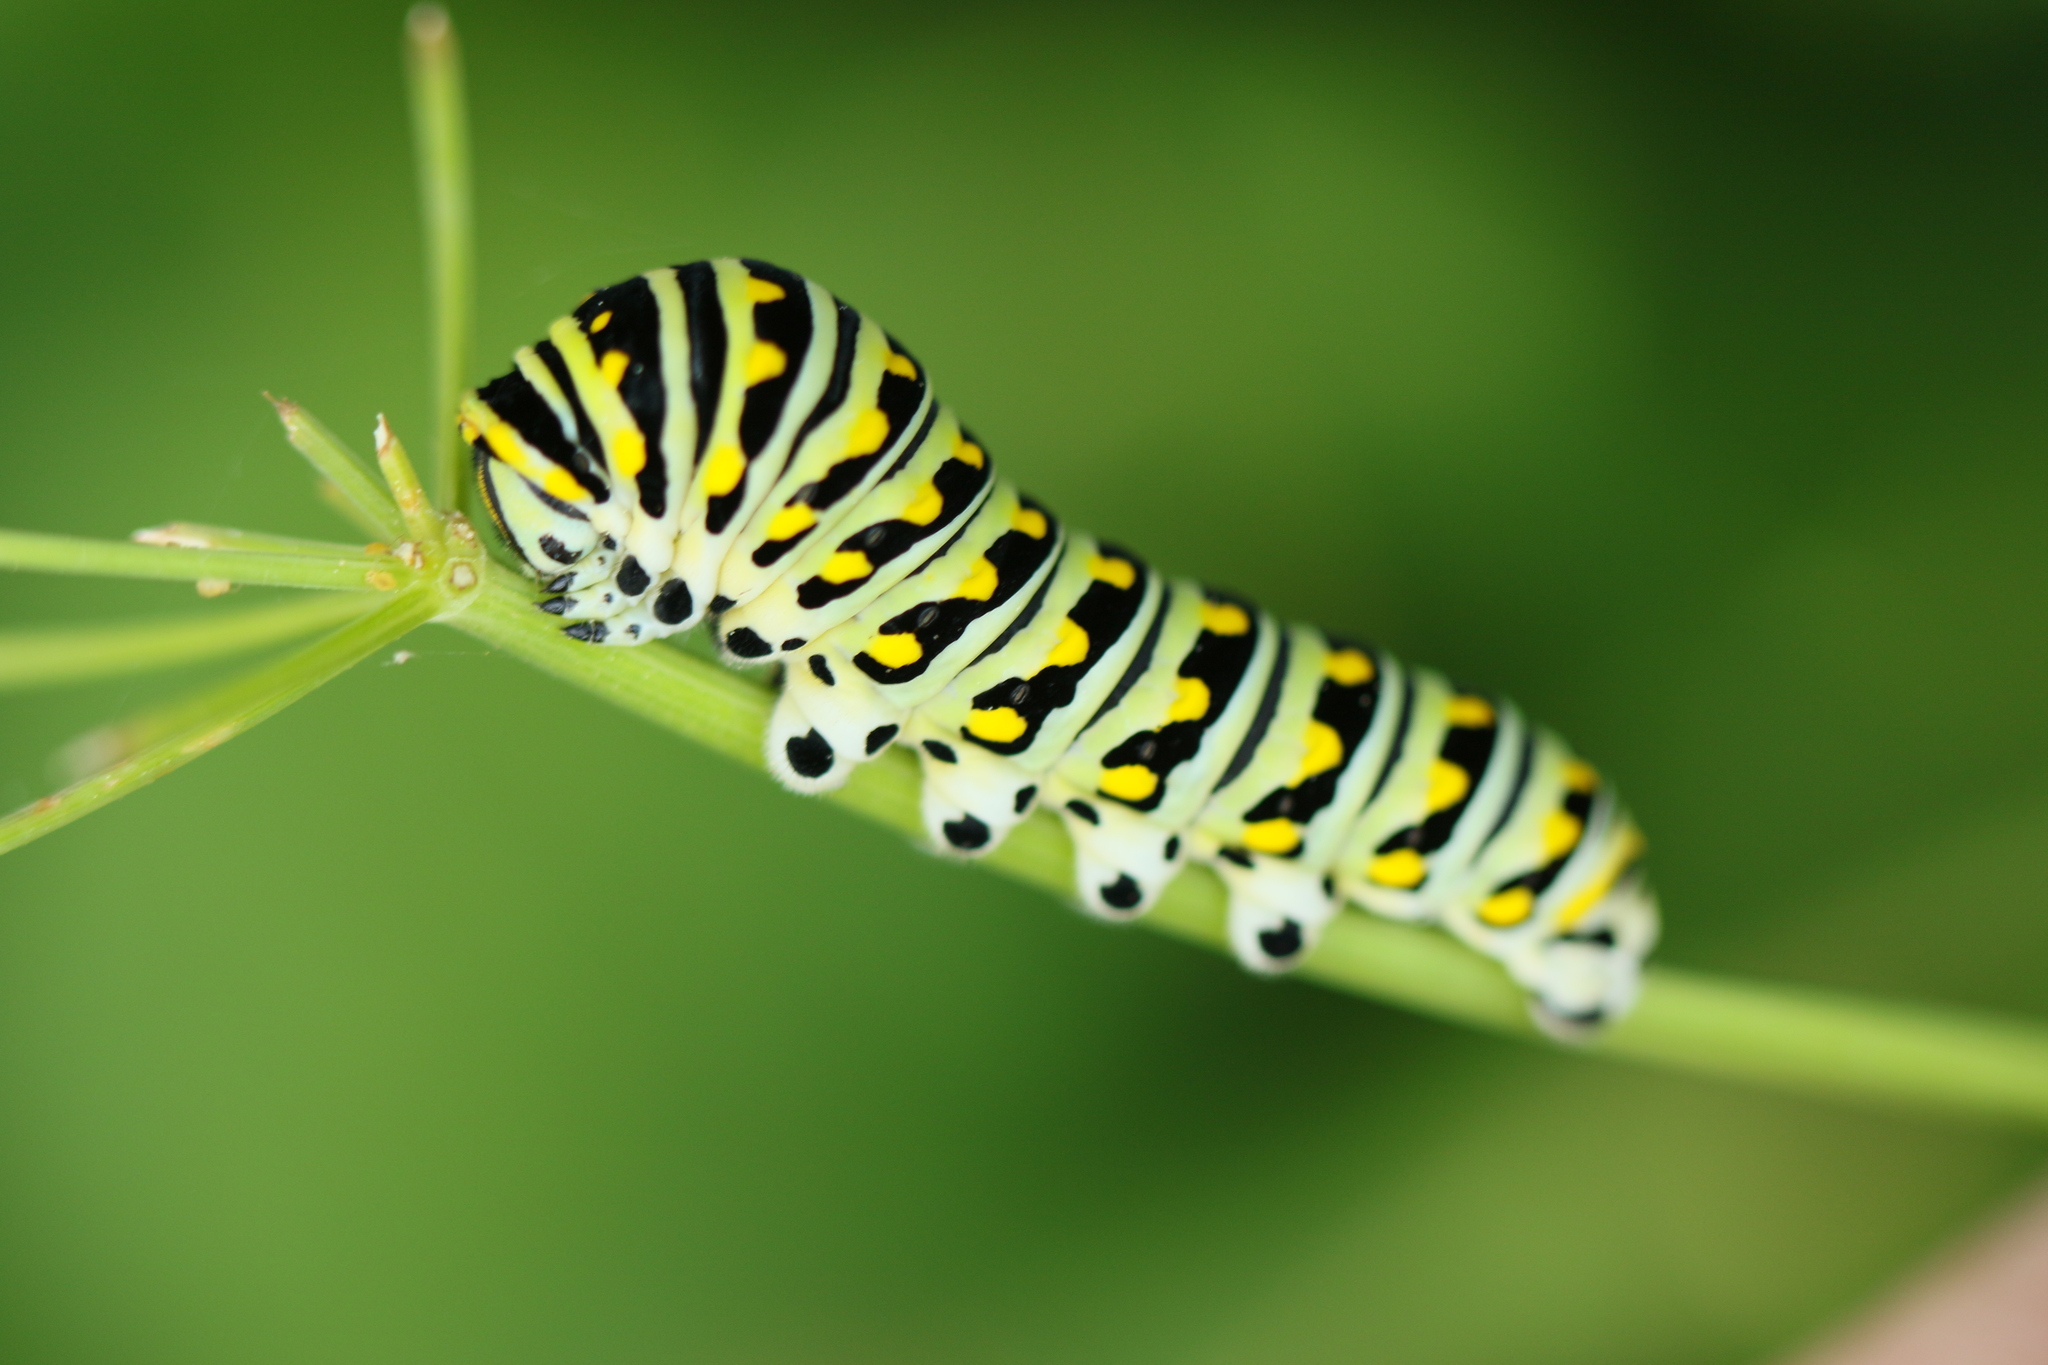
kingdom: Animalia
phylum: Arthropoda
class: Insecta
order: Lepidoptera
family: Papilionidae
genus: Papilio
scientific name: Papilio polyxenes
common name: Black swallowtail
